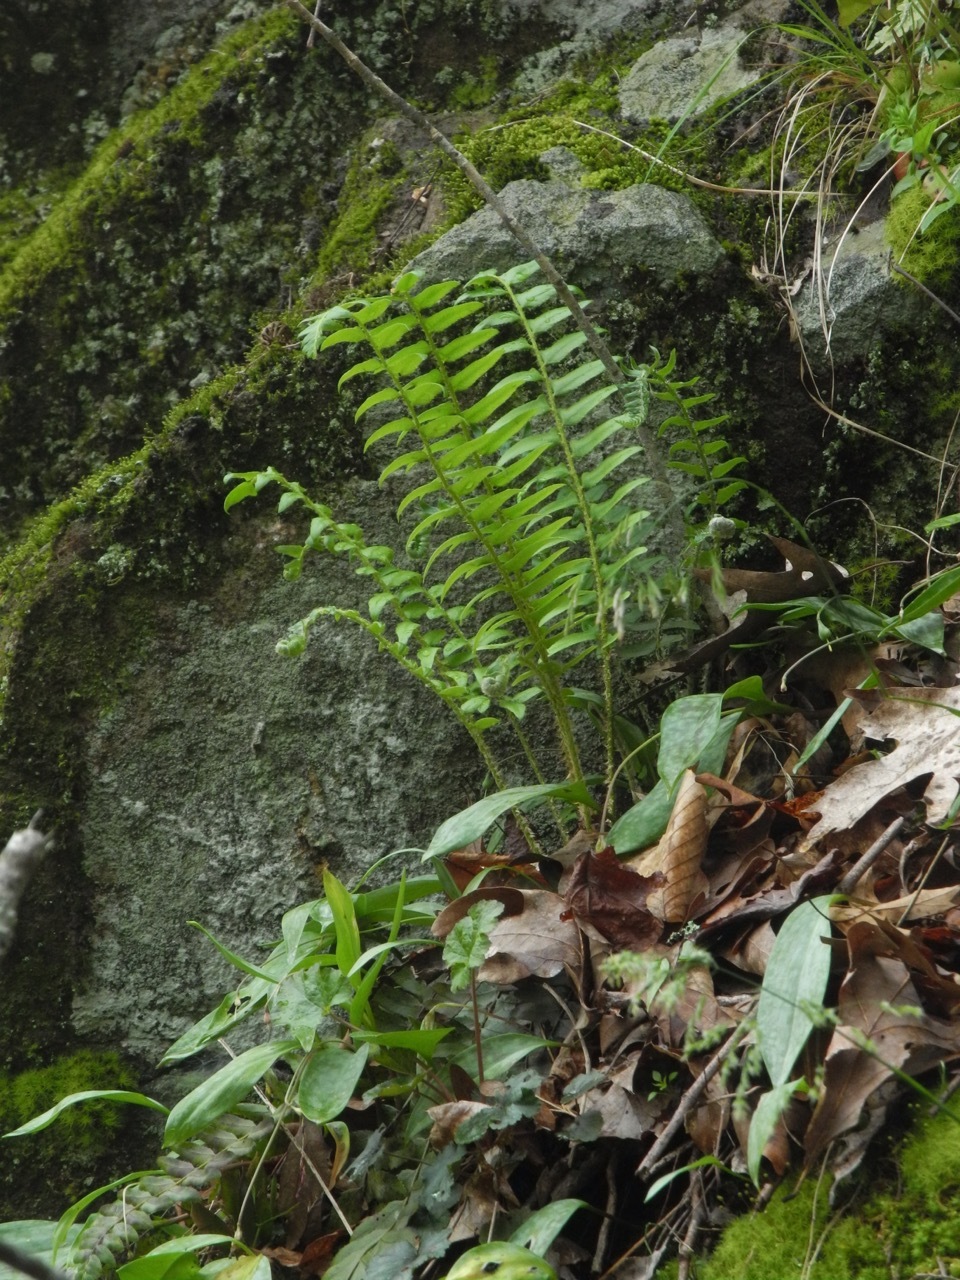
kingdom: Plantae
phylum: Tracheophyta
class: Polypodiopsida
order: Polypodiales
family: Dryopteridaceae
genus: Polystichum
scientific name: Polystichum acrostichoides
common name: Christmas fern
